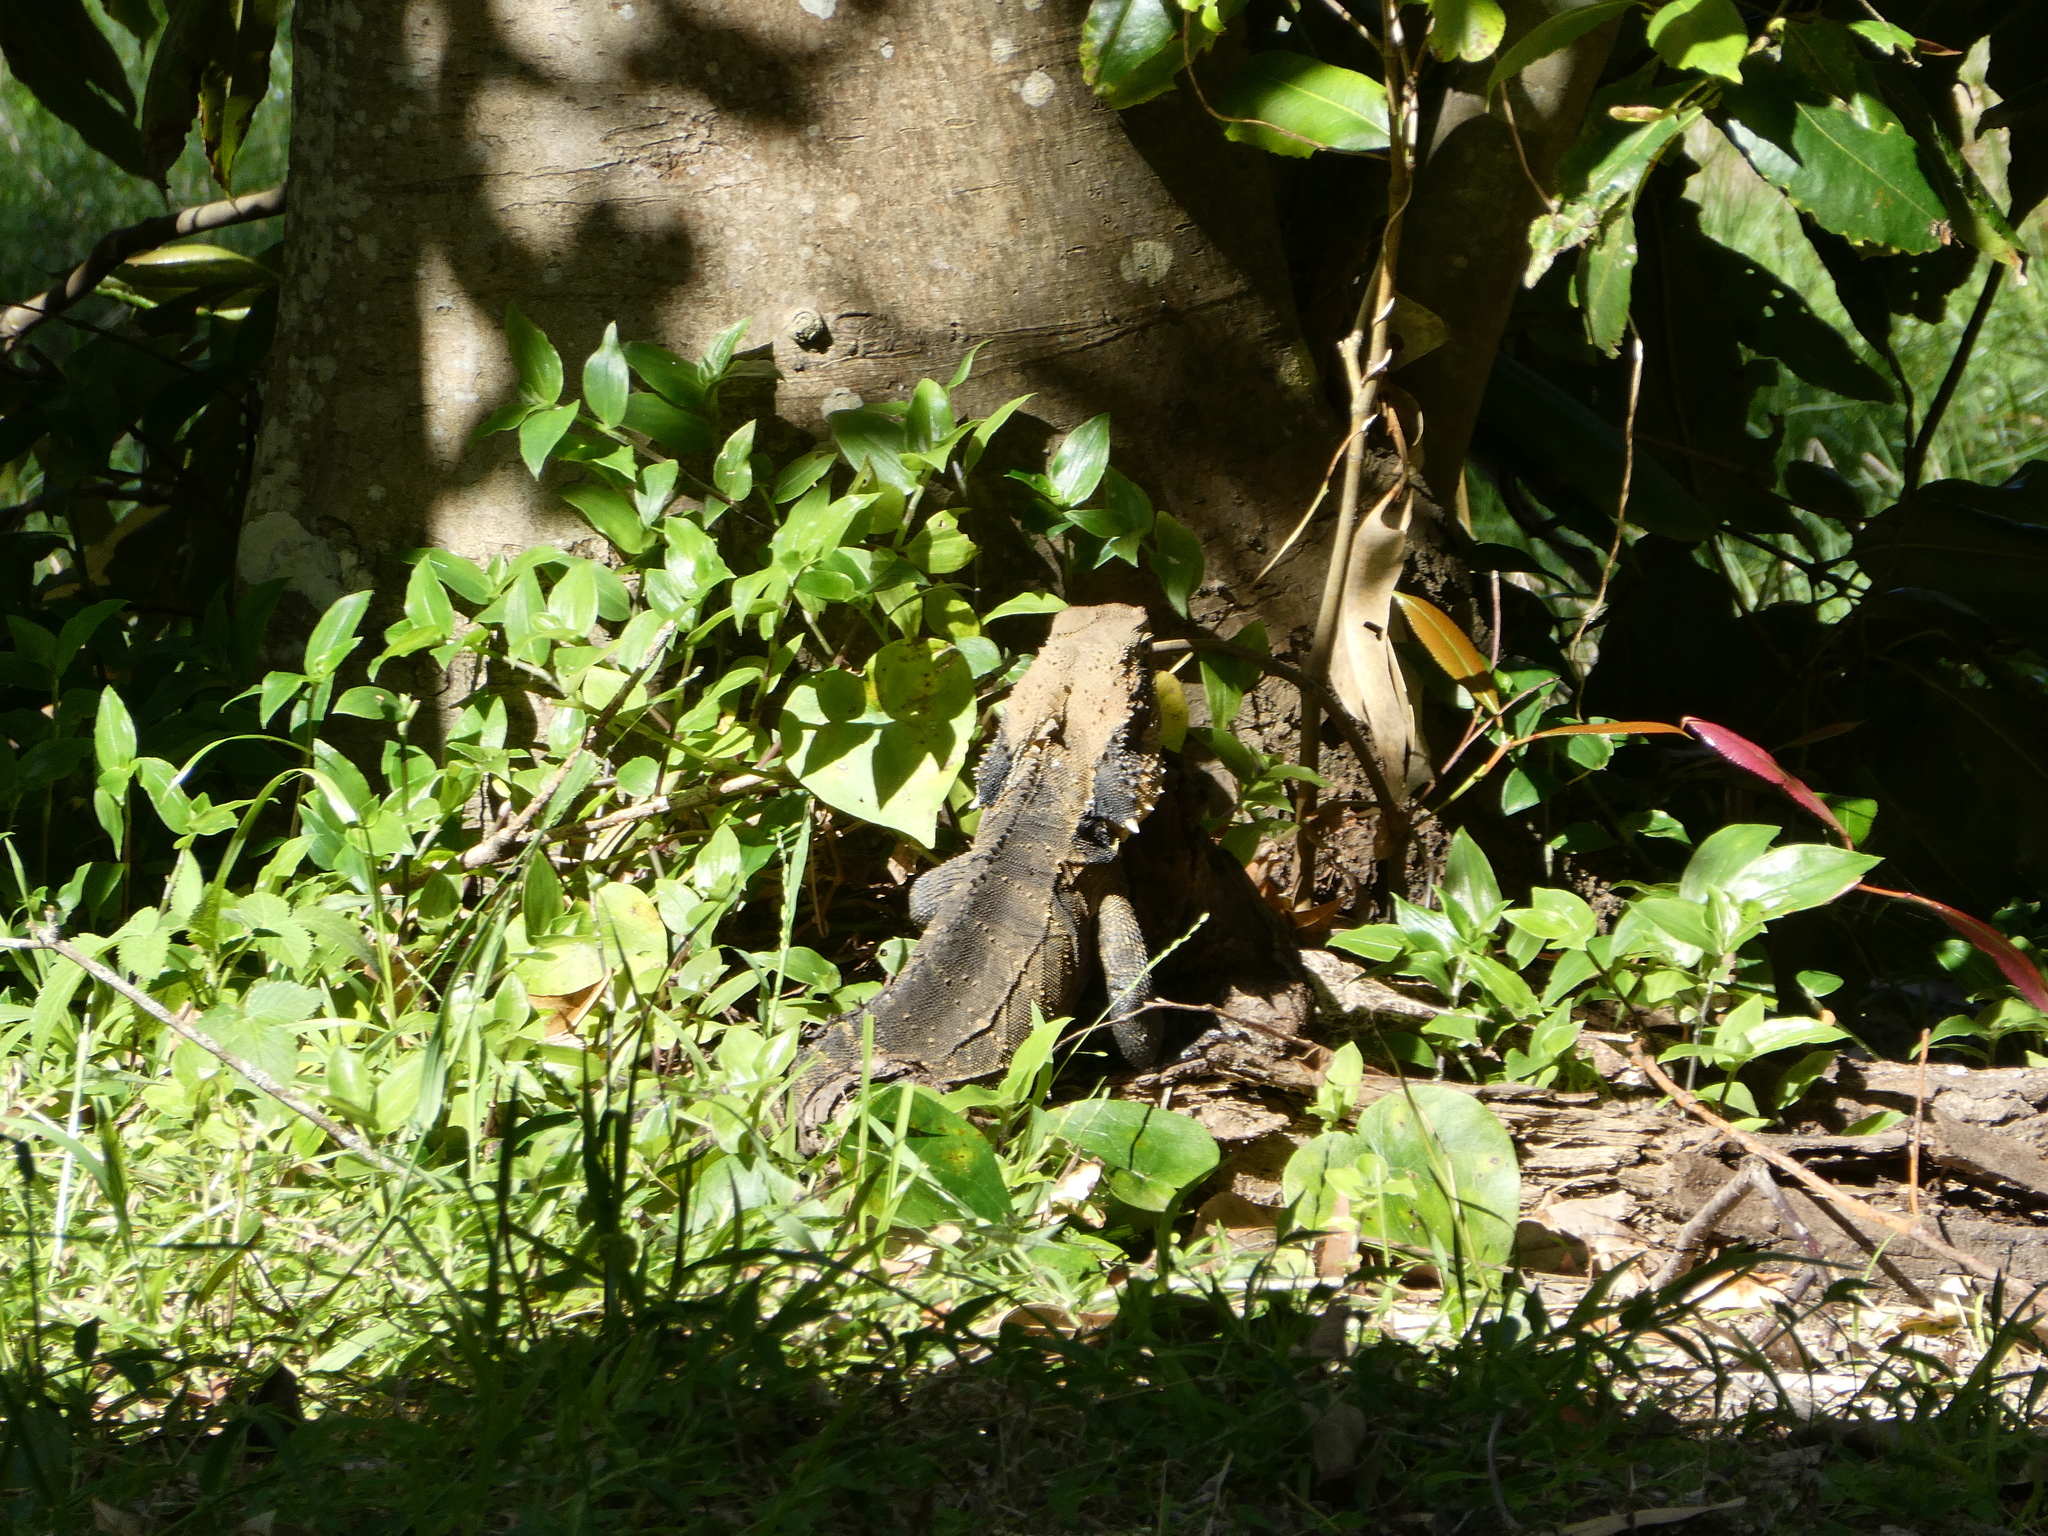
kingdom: Animalia
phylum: Chordata
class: Squamata
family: Agamidae
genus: Intellagama
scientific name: Intellagama lesueurii
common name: Eastern water dragon
